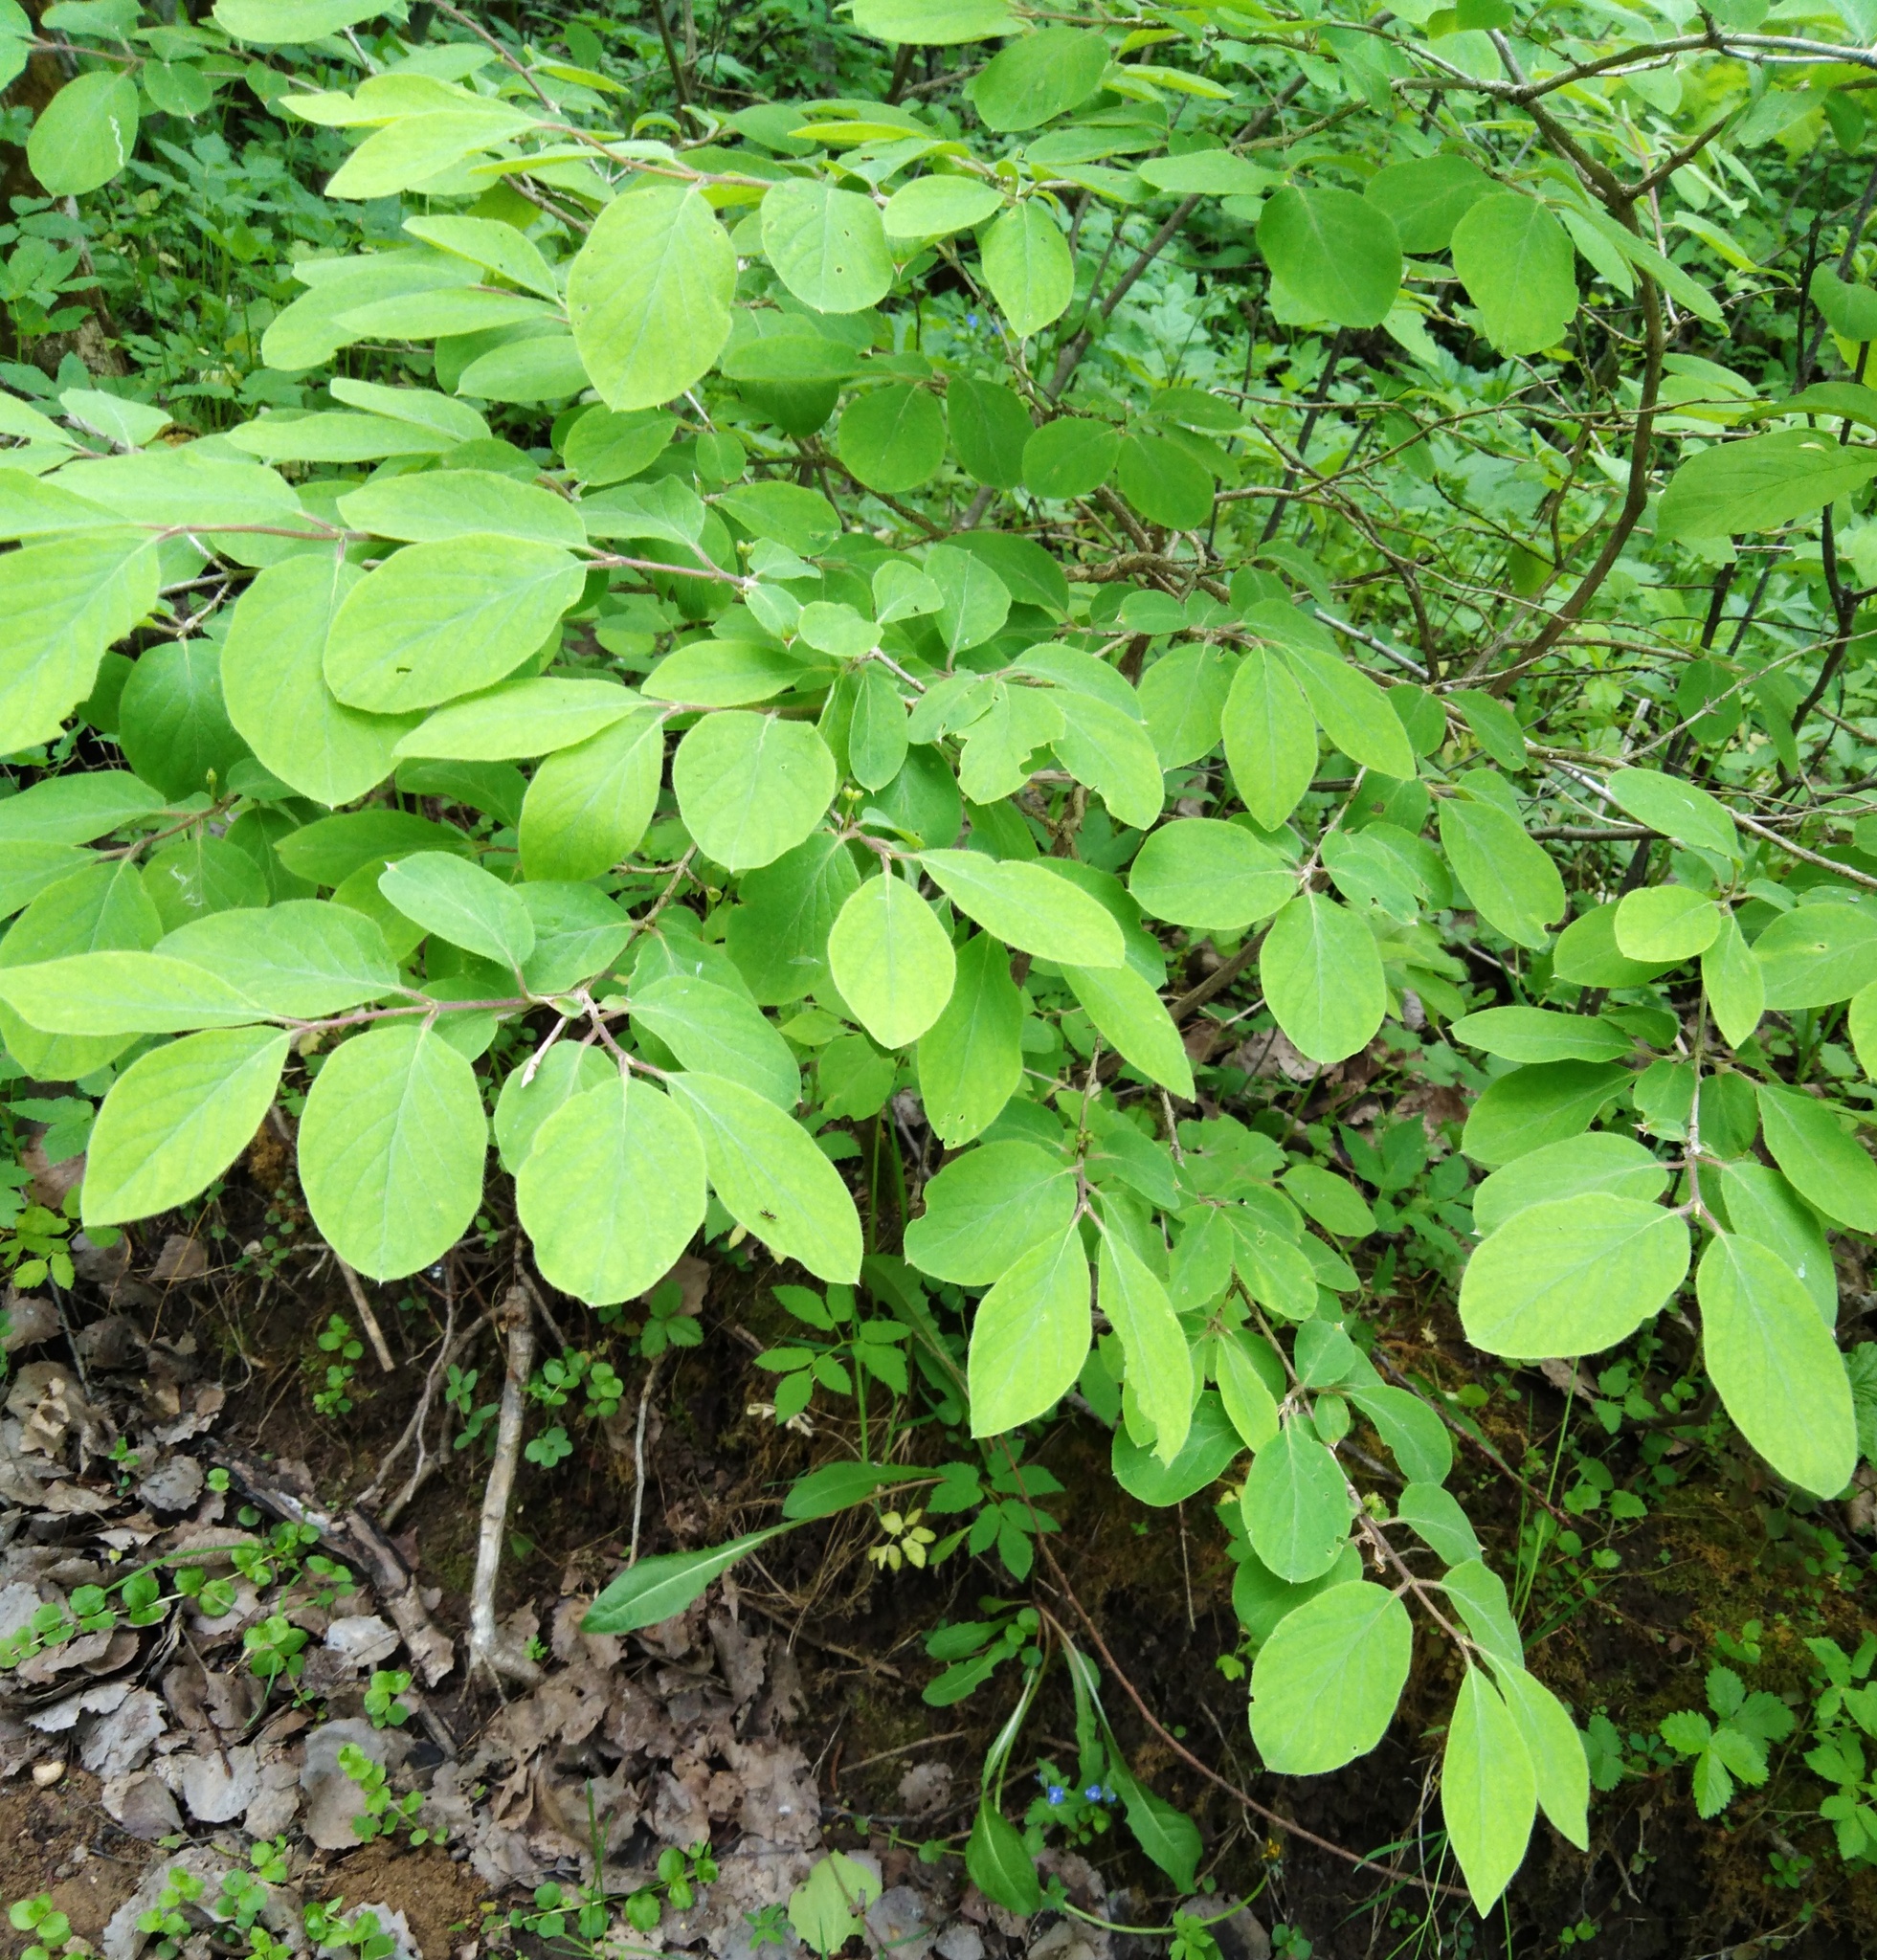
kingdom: Plantae
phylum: Tracheophyta
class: Magnoliopsida
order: Dipsacales
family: Caprifoliaceae
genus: Lonicera
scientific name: Lonicera xylosteum
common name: Fly honeysuckle
